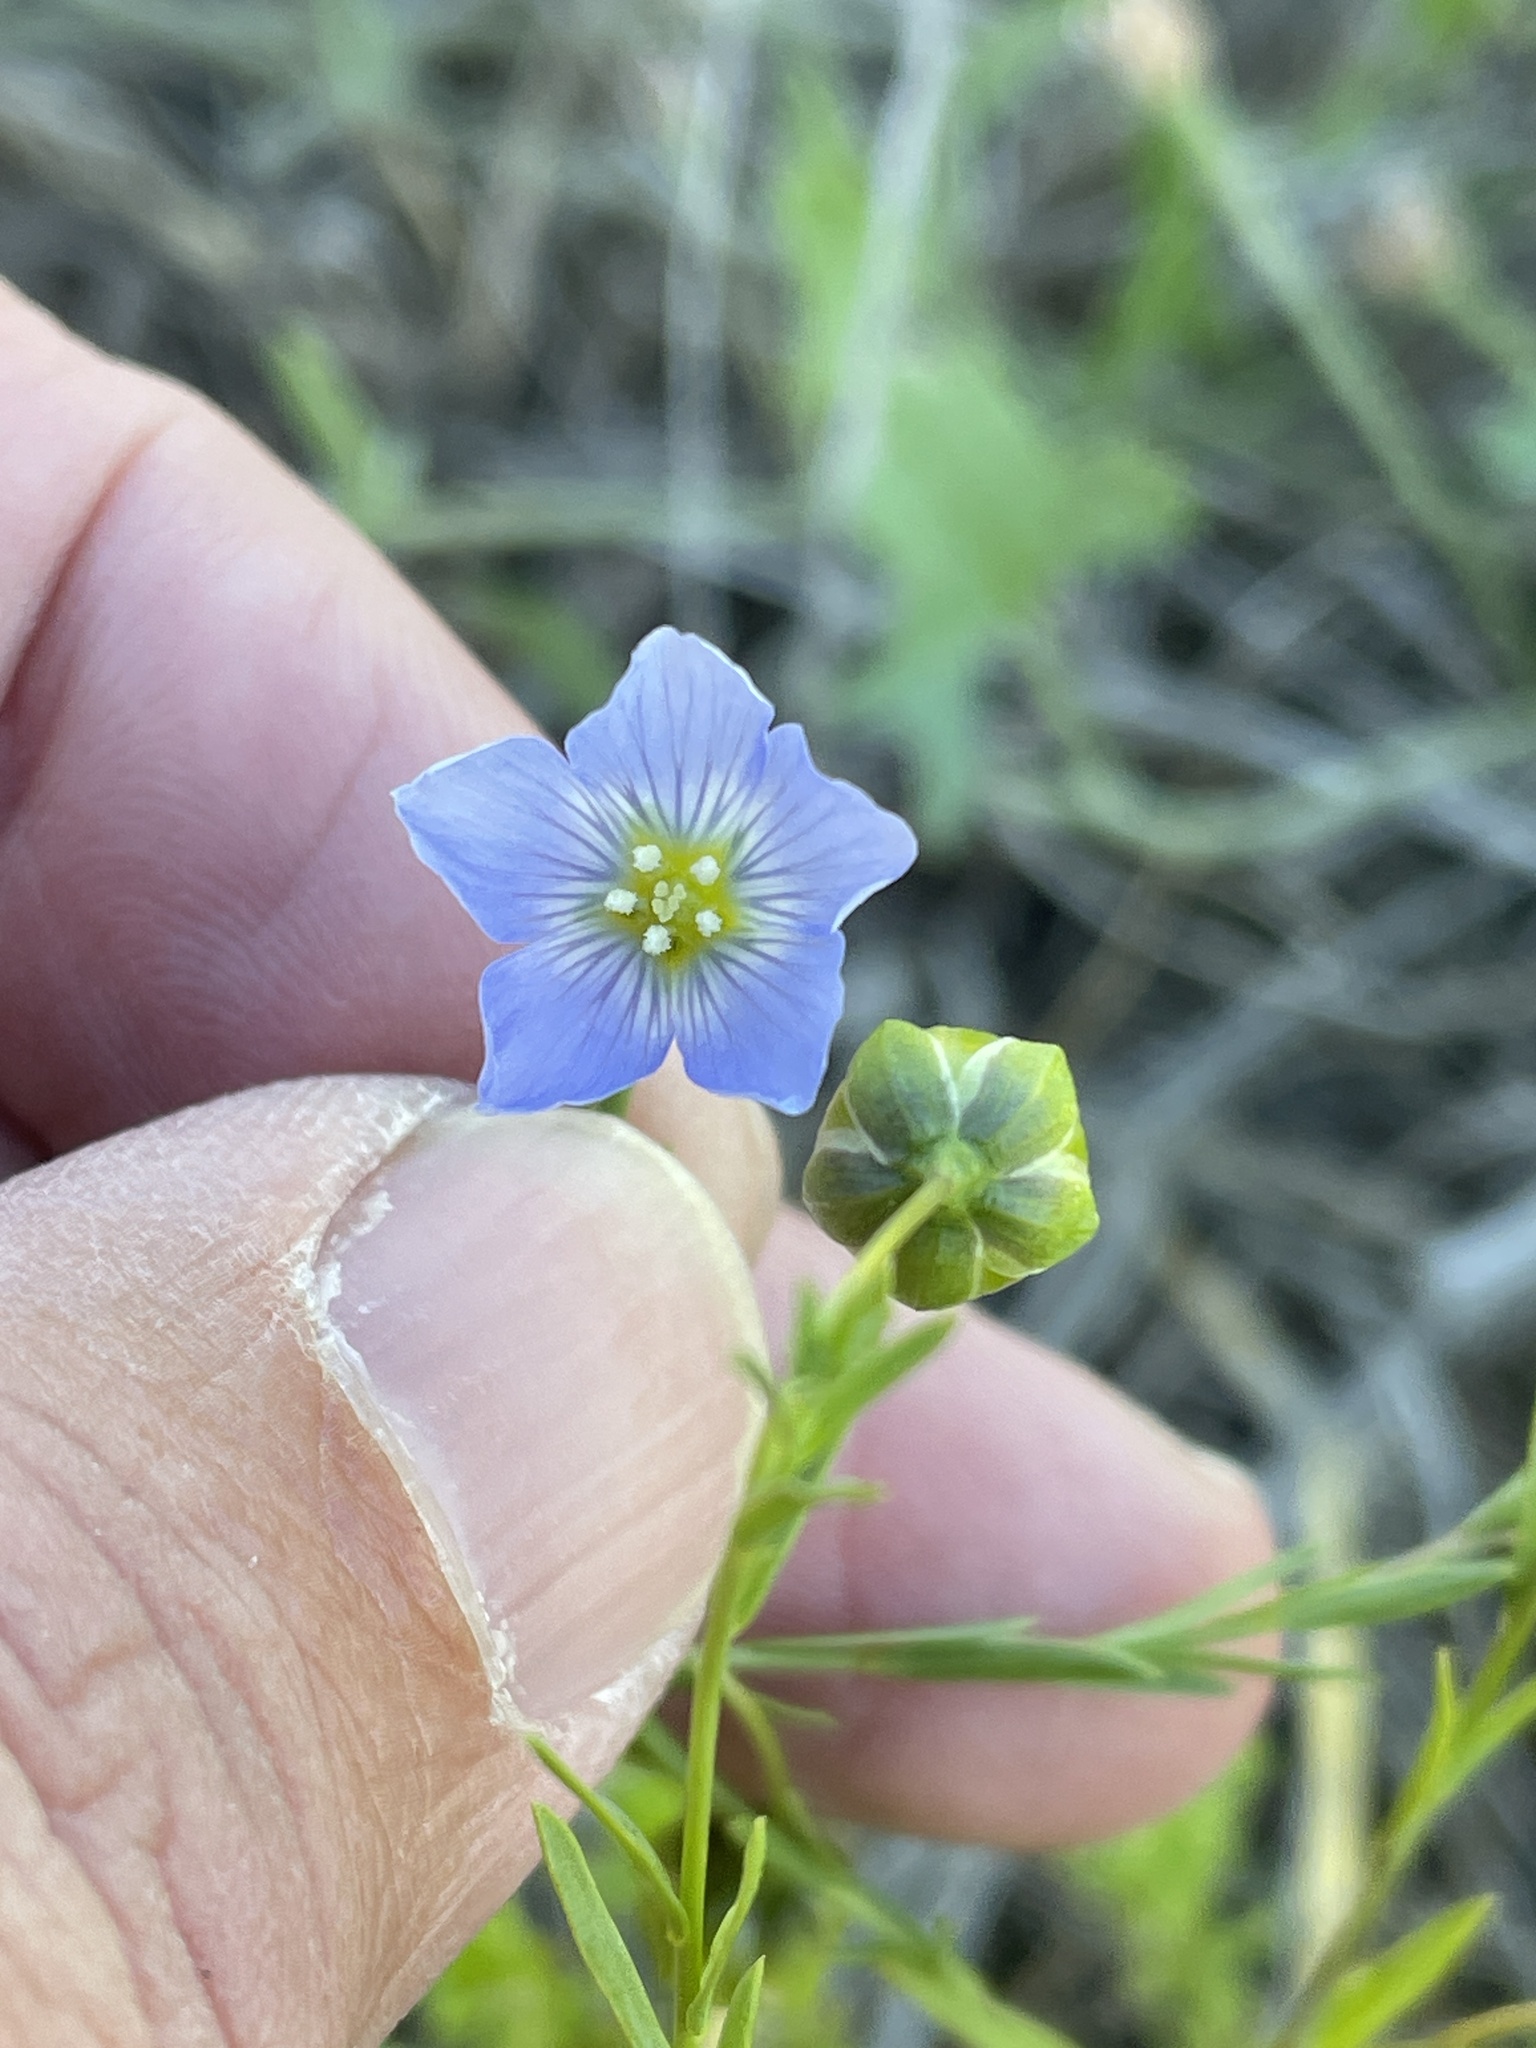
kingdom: Plantae
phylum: Tracheophyta
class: Magnoliopsida
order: Malpighiales
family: Linaceae
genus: Linum
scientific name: Linum pratense
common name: Norton's flax
